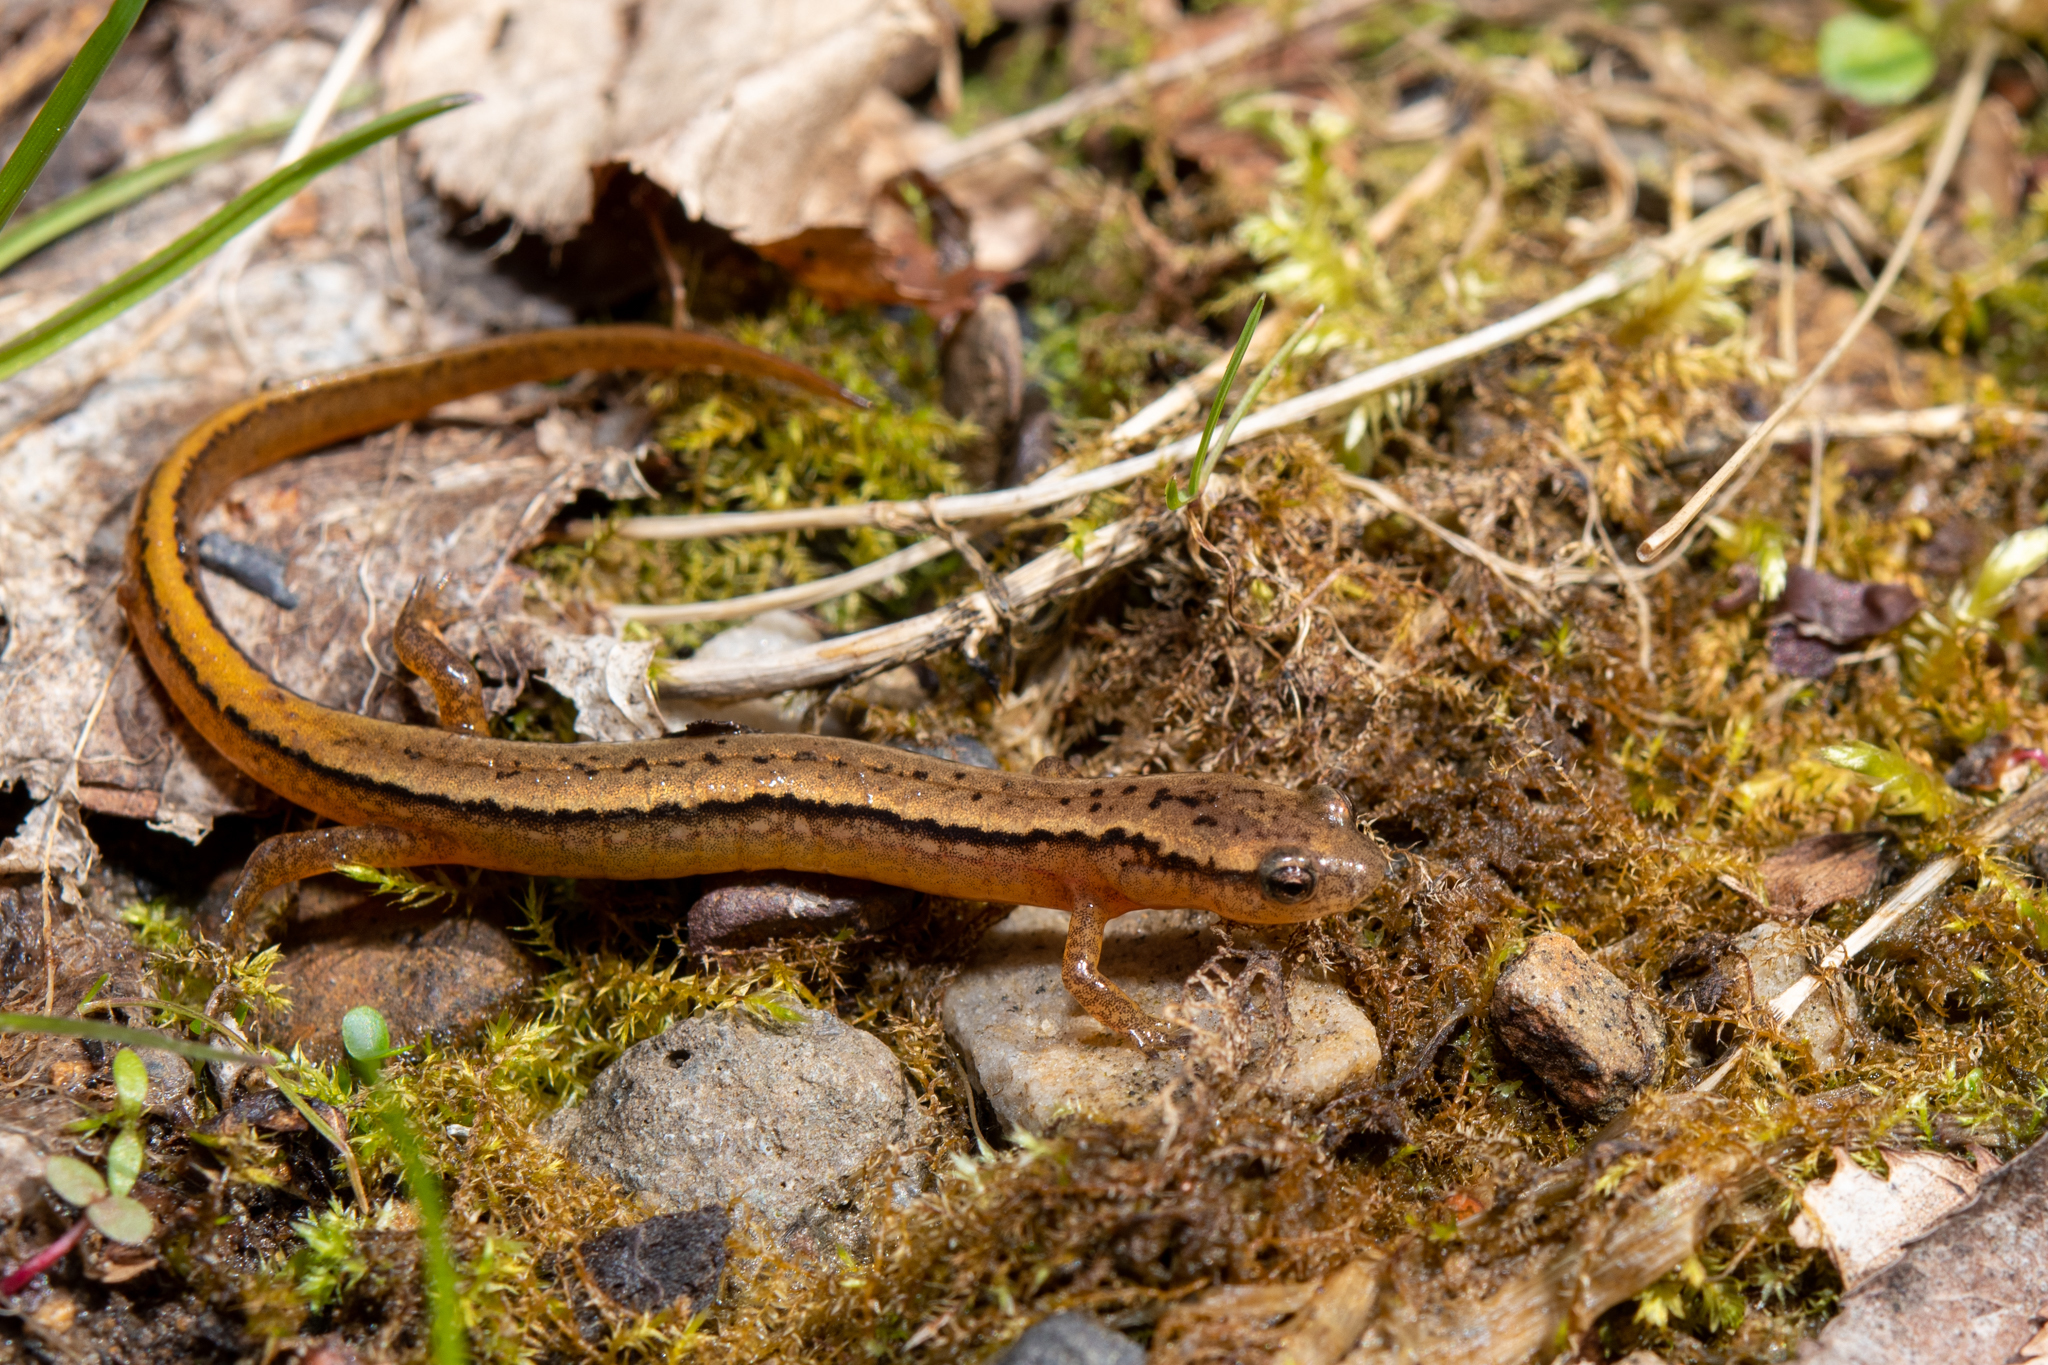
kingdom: Animalia
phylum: Chordata
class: Amphibia
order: Caudata
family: Plethodontidae
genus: Eurycea
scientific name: Eurycea bislineata
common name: Northern two-lined salamander
